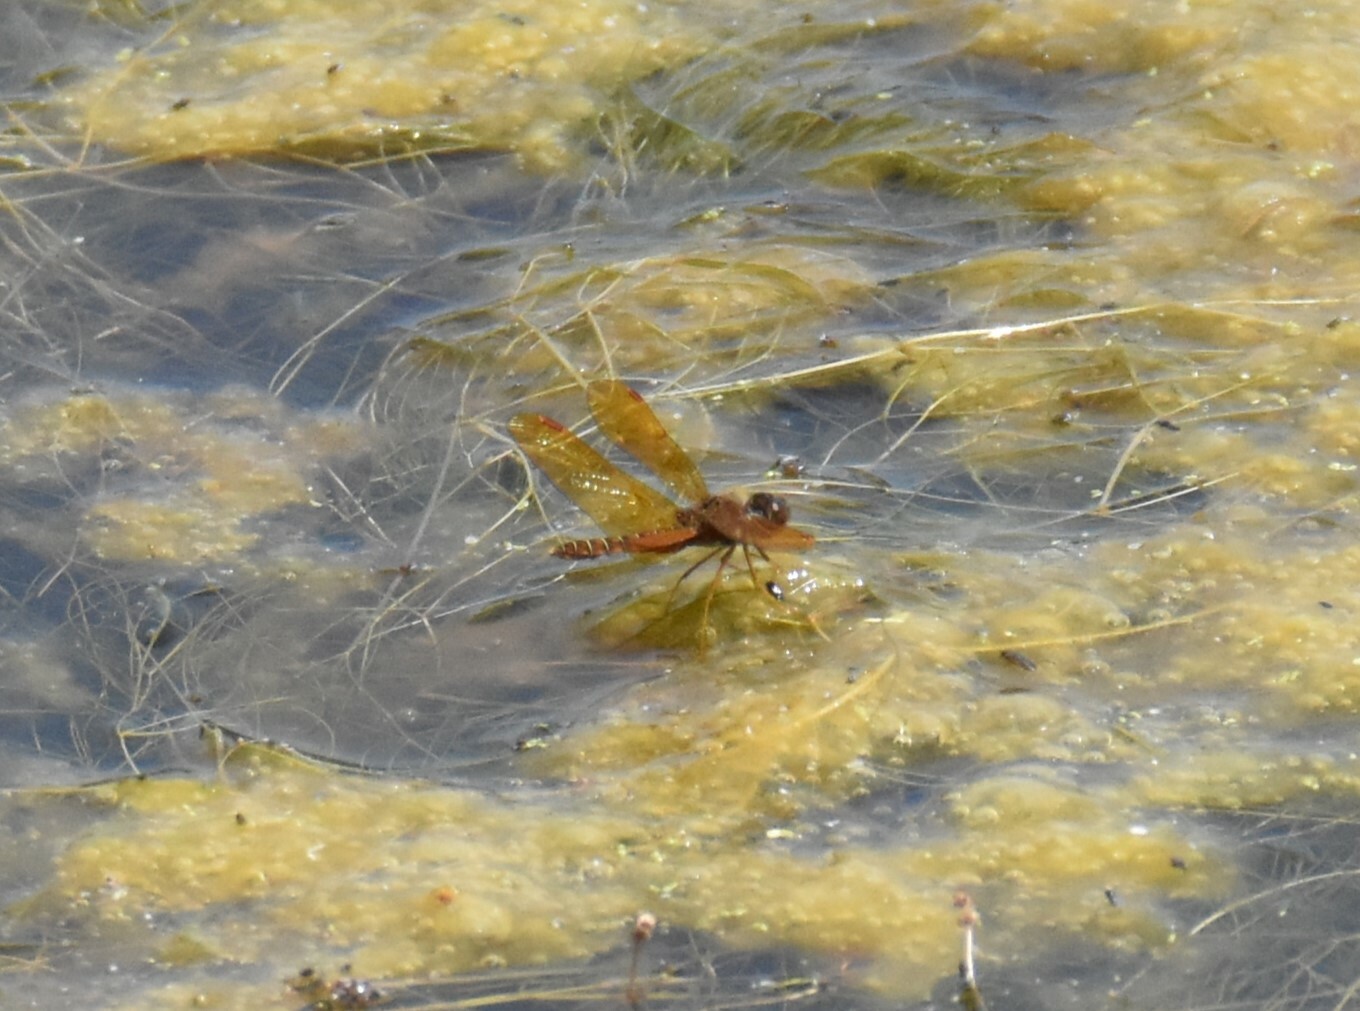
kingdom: Animalia
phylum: Arthropoda
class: Insecta
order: Odonata
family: Libellulidae
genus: Perithemis
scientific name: Perithemis tenera
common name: Eastern amberwing
